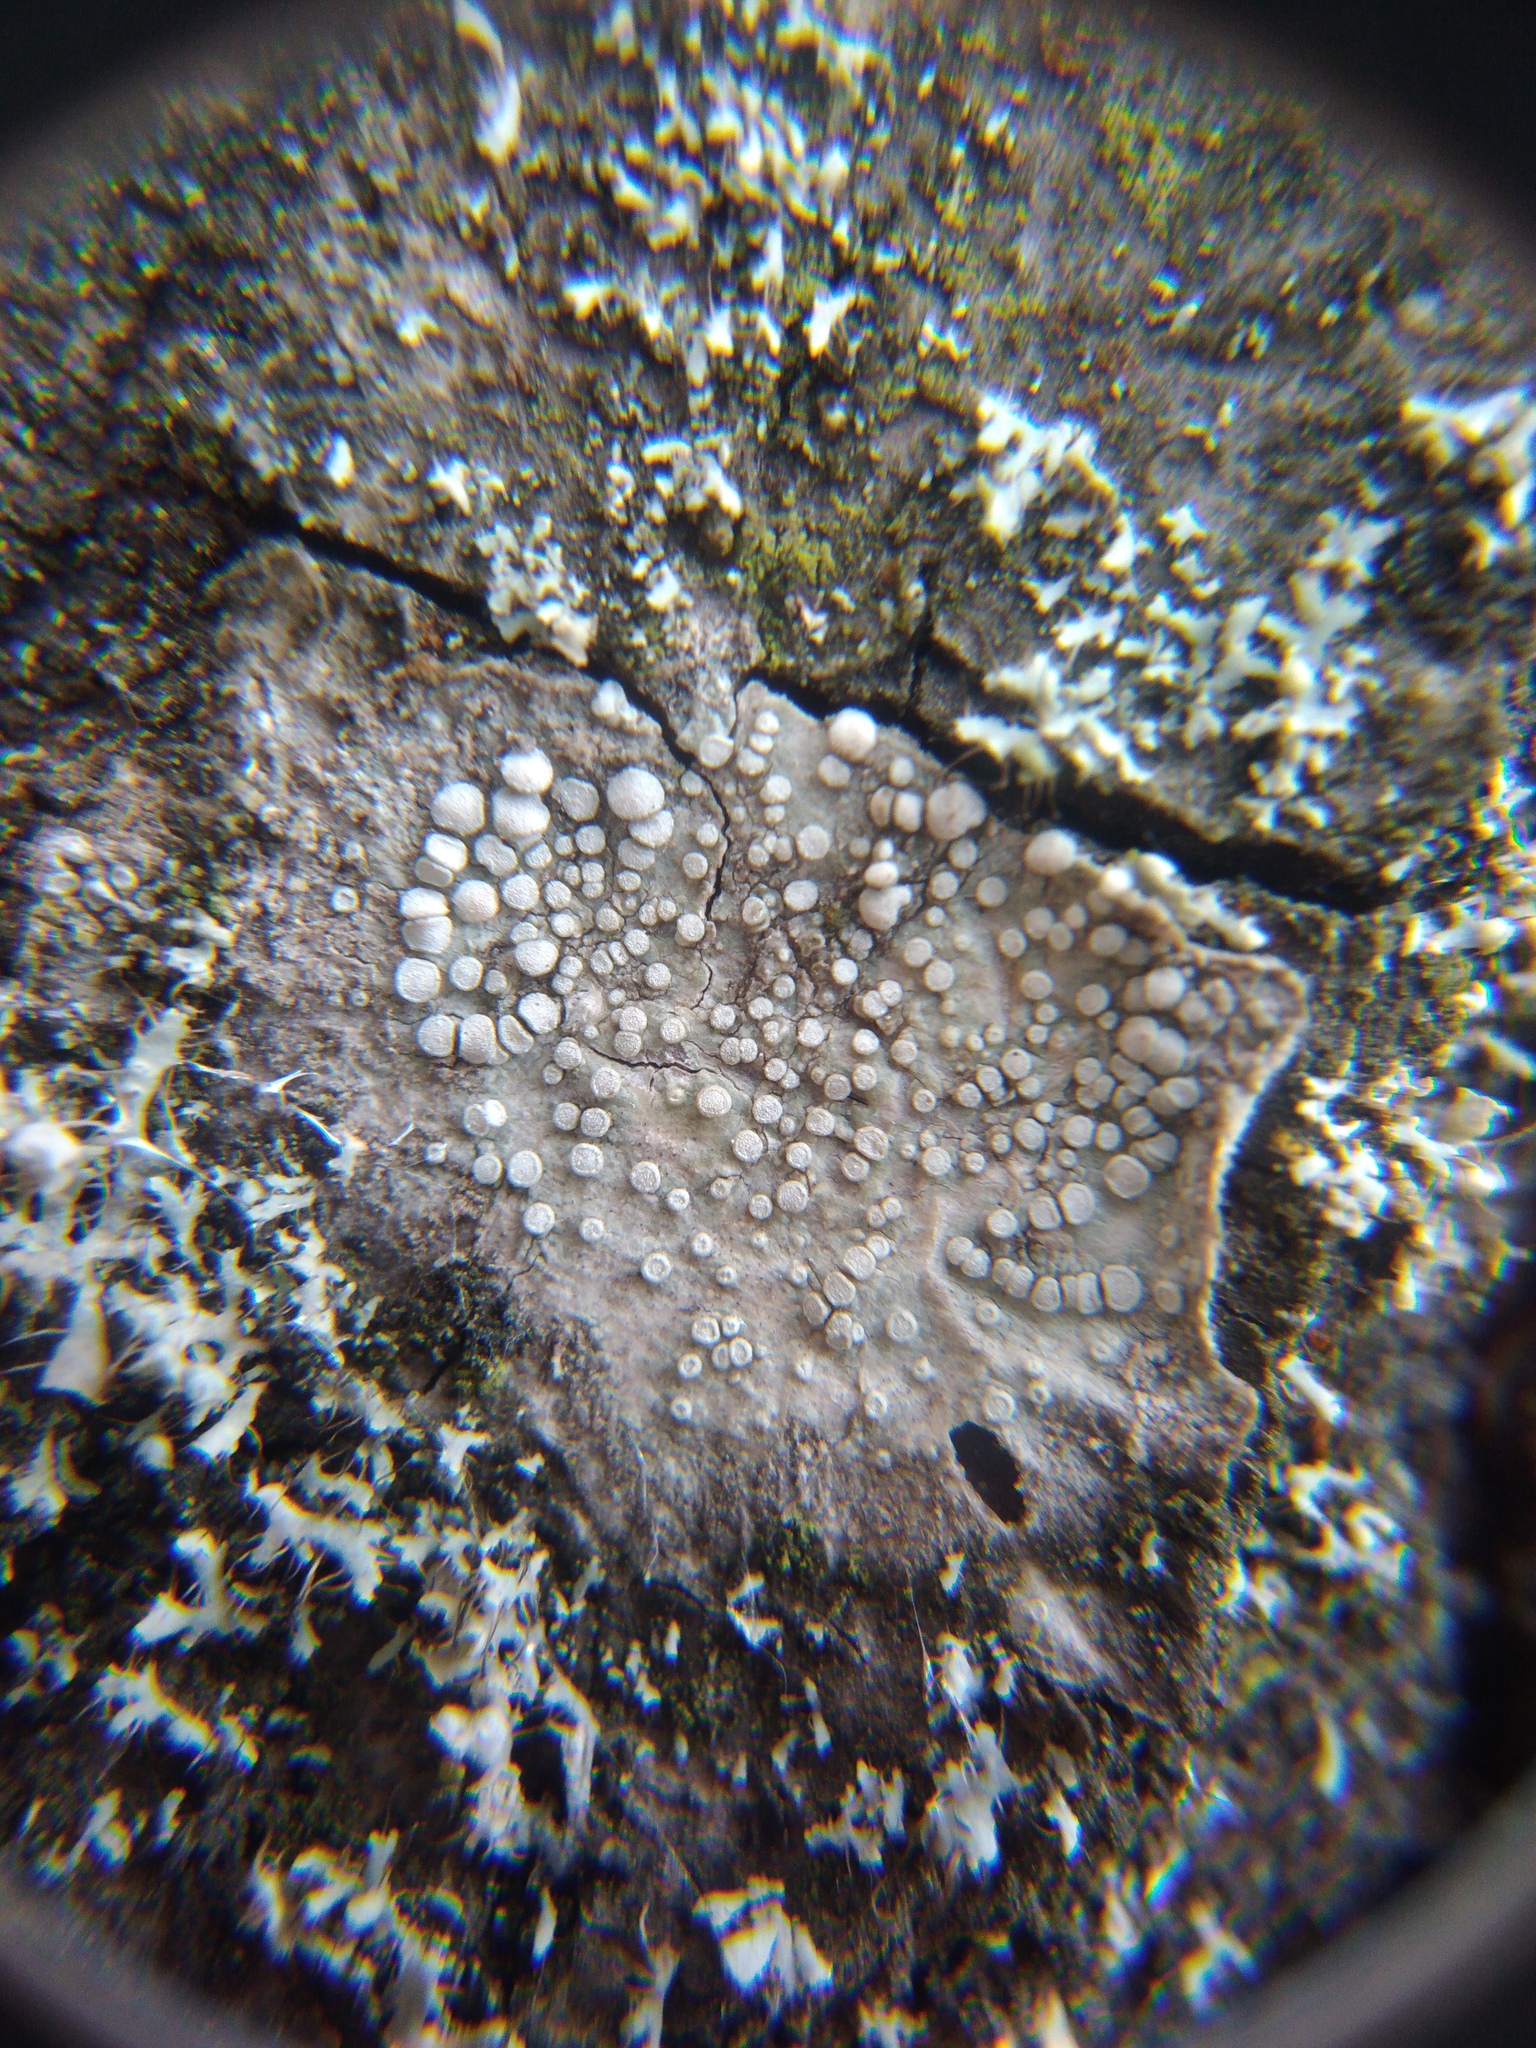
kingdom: Fungi
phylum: Ascomycota
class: Lecanoromycetes
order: Lecanorales
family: Lecanoraceae
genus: Glaucomaria
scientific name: Glaucomaria carpinea
